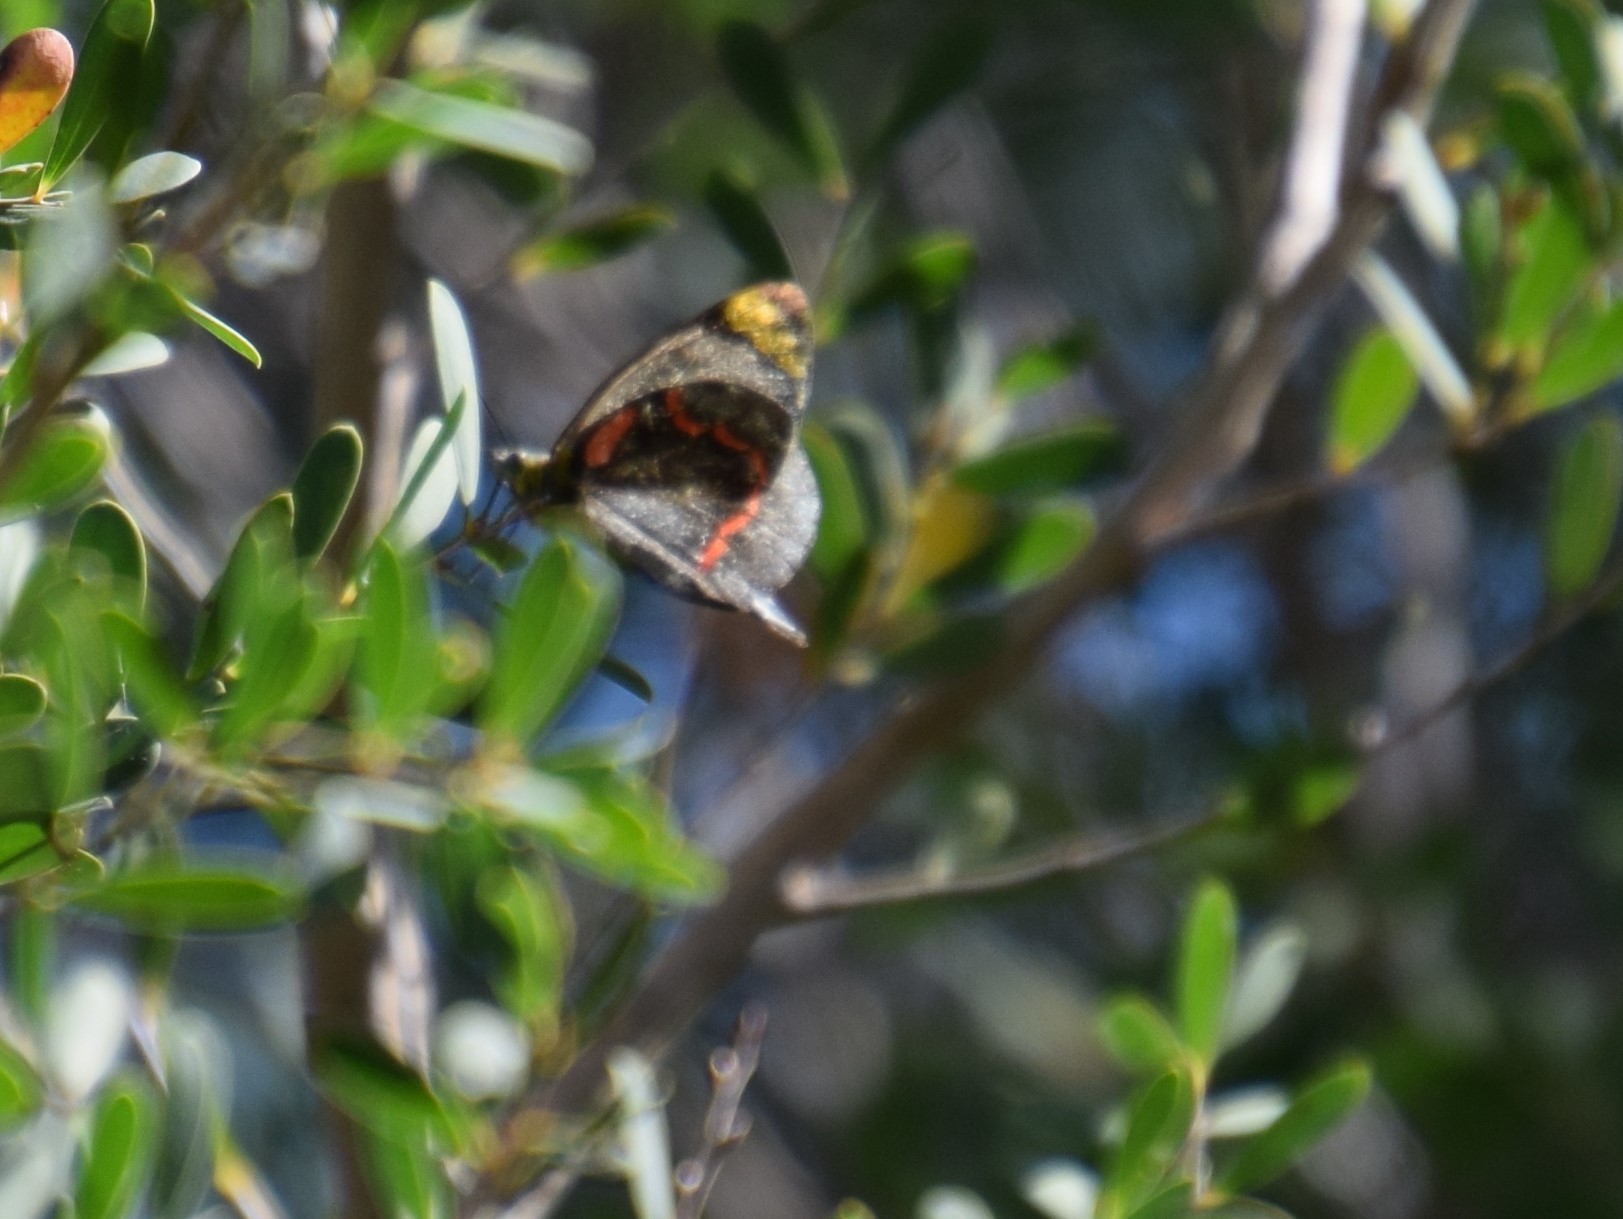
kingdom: Animalia
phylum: Arthropoda
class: Insecta
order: Lepidoptera
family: Pieridae
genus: Delias
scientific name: Delias nigrina
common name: Black jezebel
